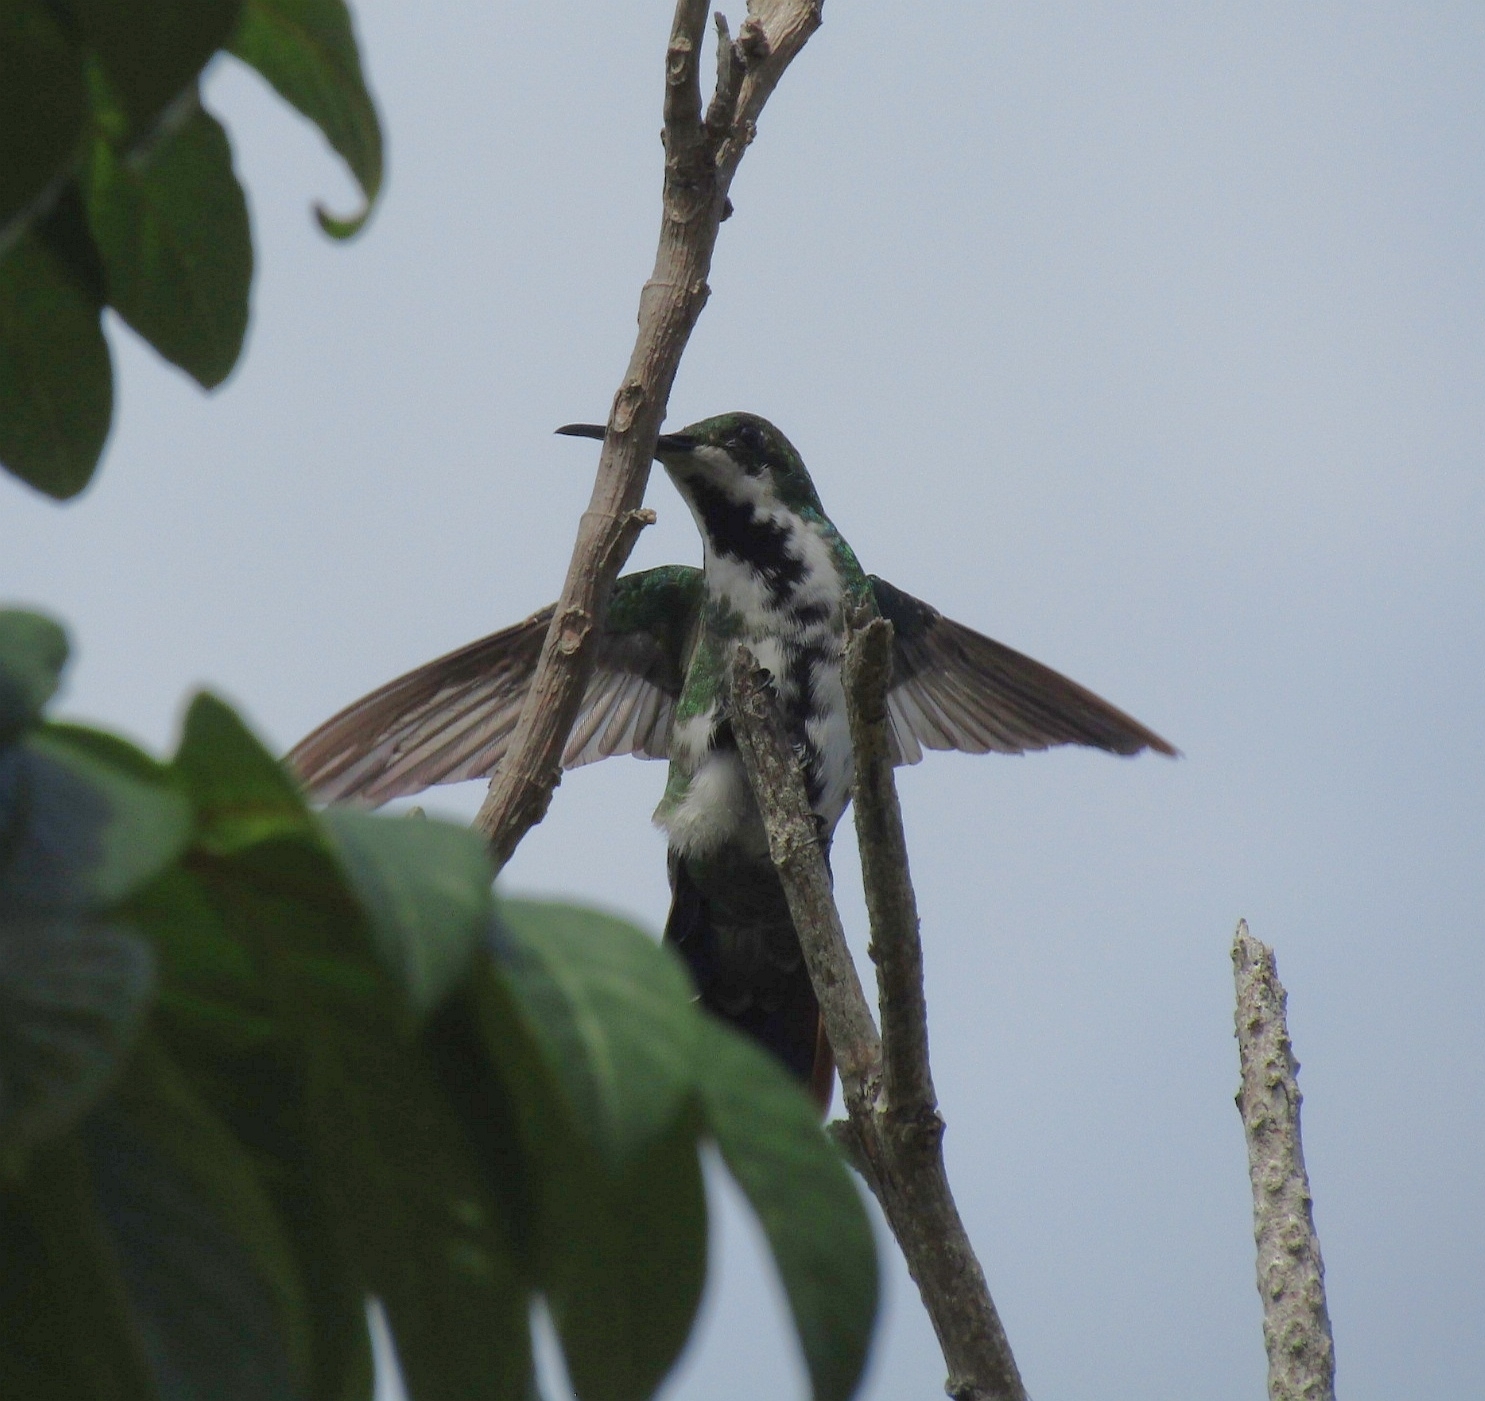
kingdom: Animalia
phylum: Chordata
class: Aves
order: Apodiformes
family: Trochilidae
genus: Anthracothorax
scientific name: Anthracothorax nigricollis
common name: Black-throated mango
